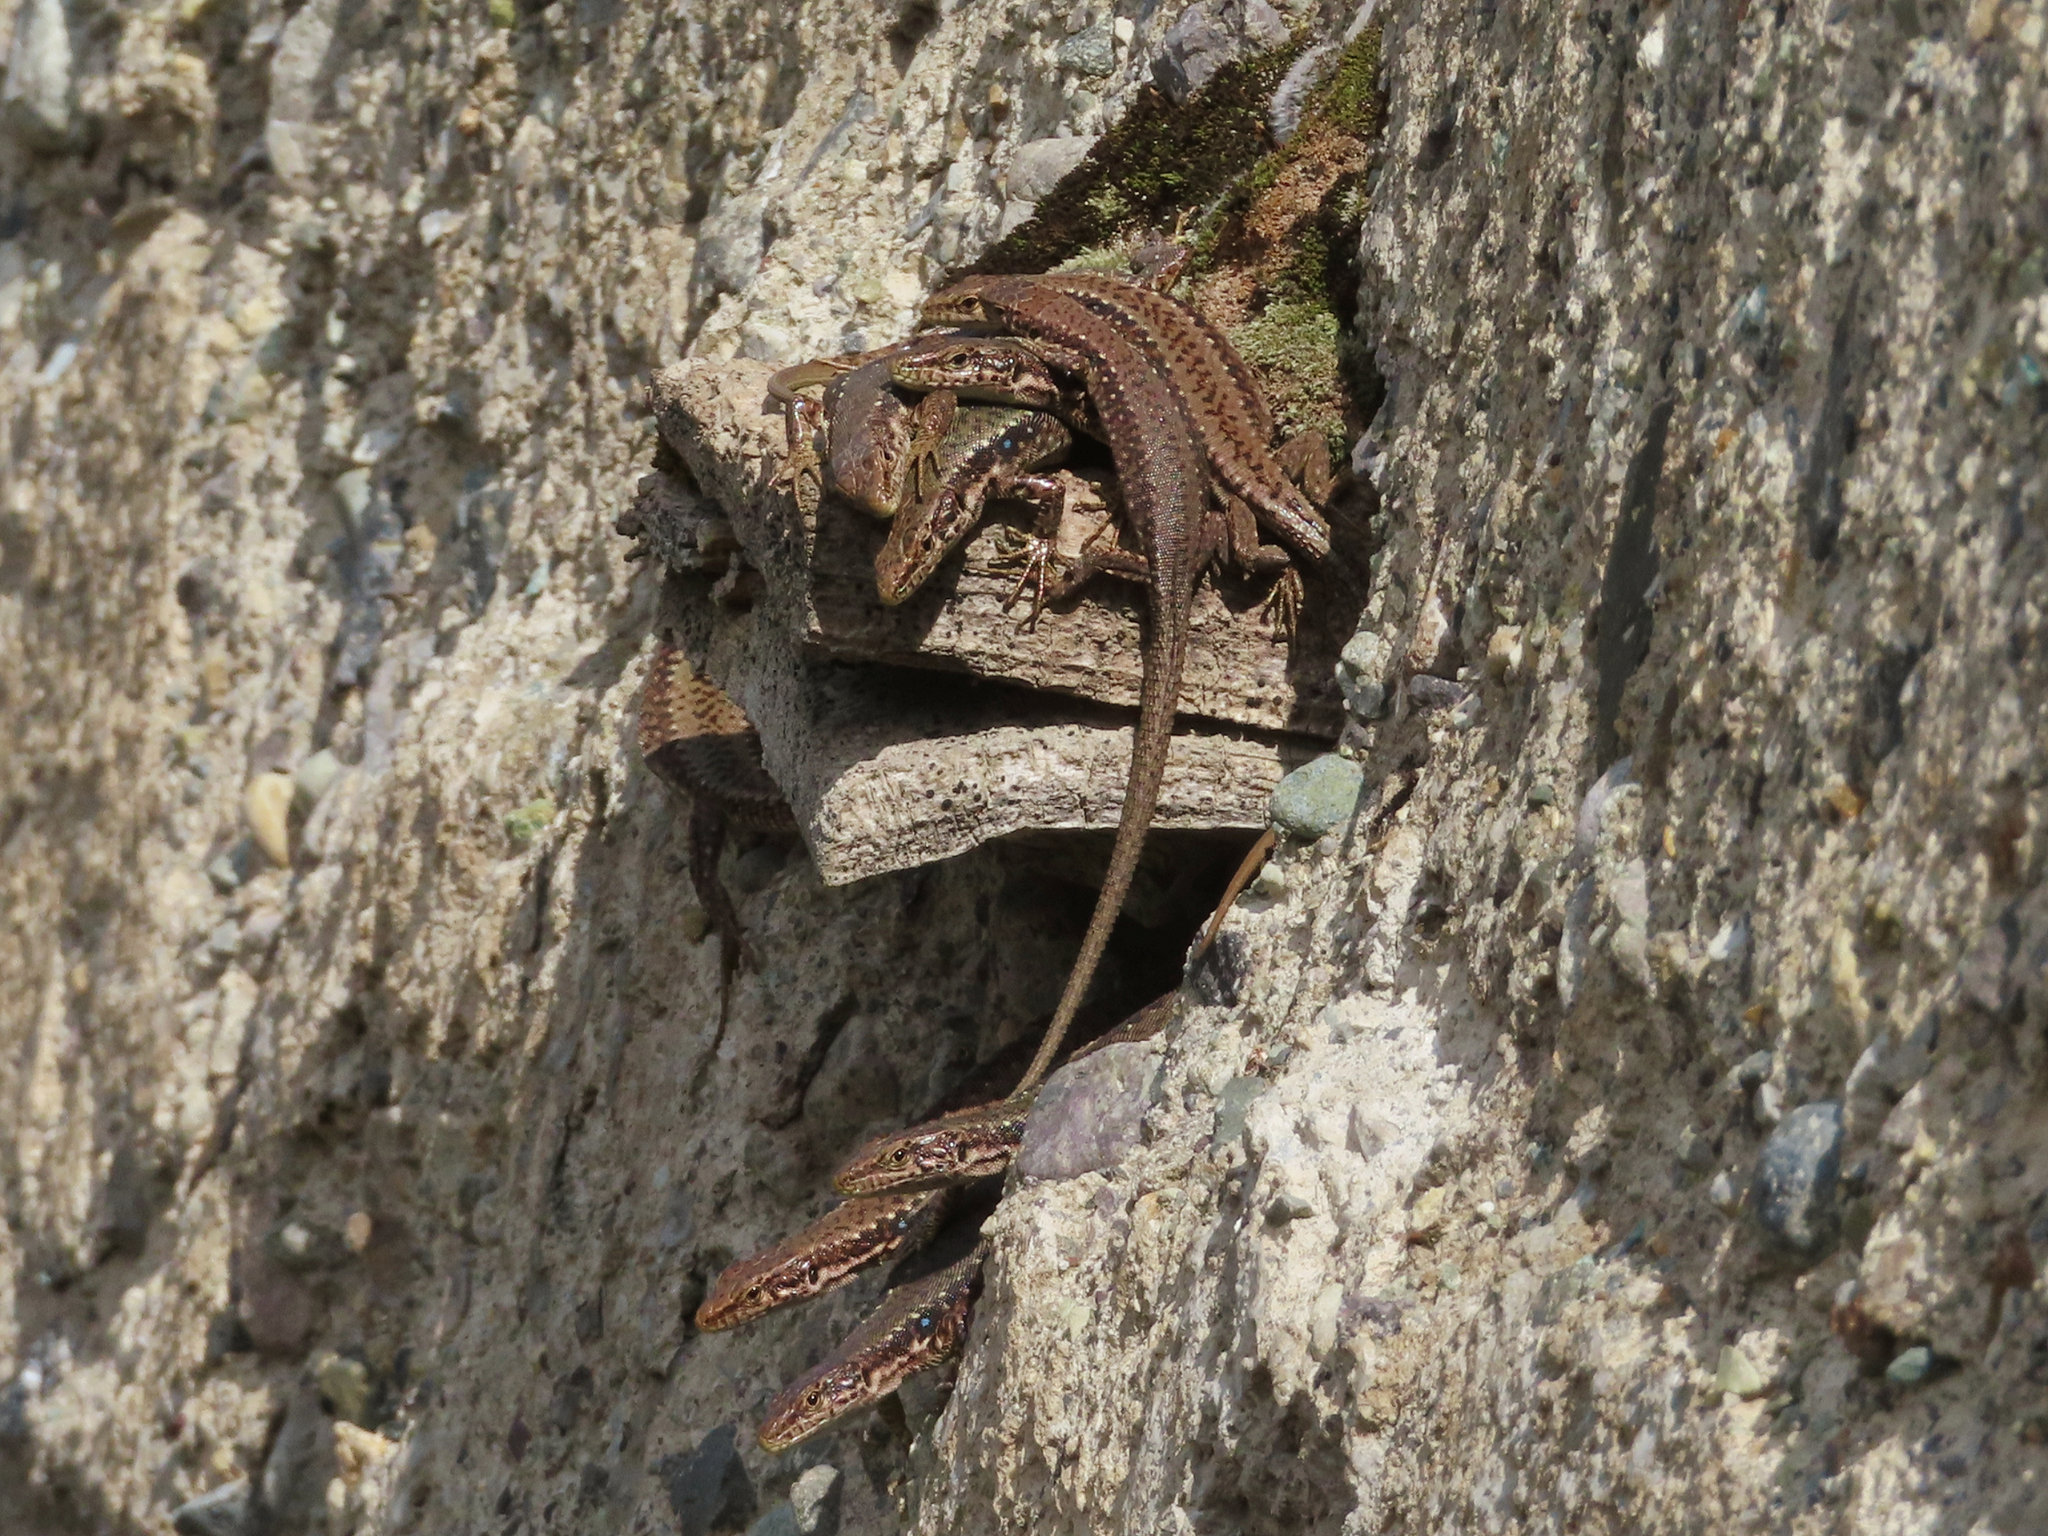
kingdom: Animalia
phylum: Chordata
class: Squamata
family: Lacertidae
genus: Darevskia
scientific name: Darevskia armeniaca
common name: Armenian lizard
